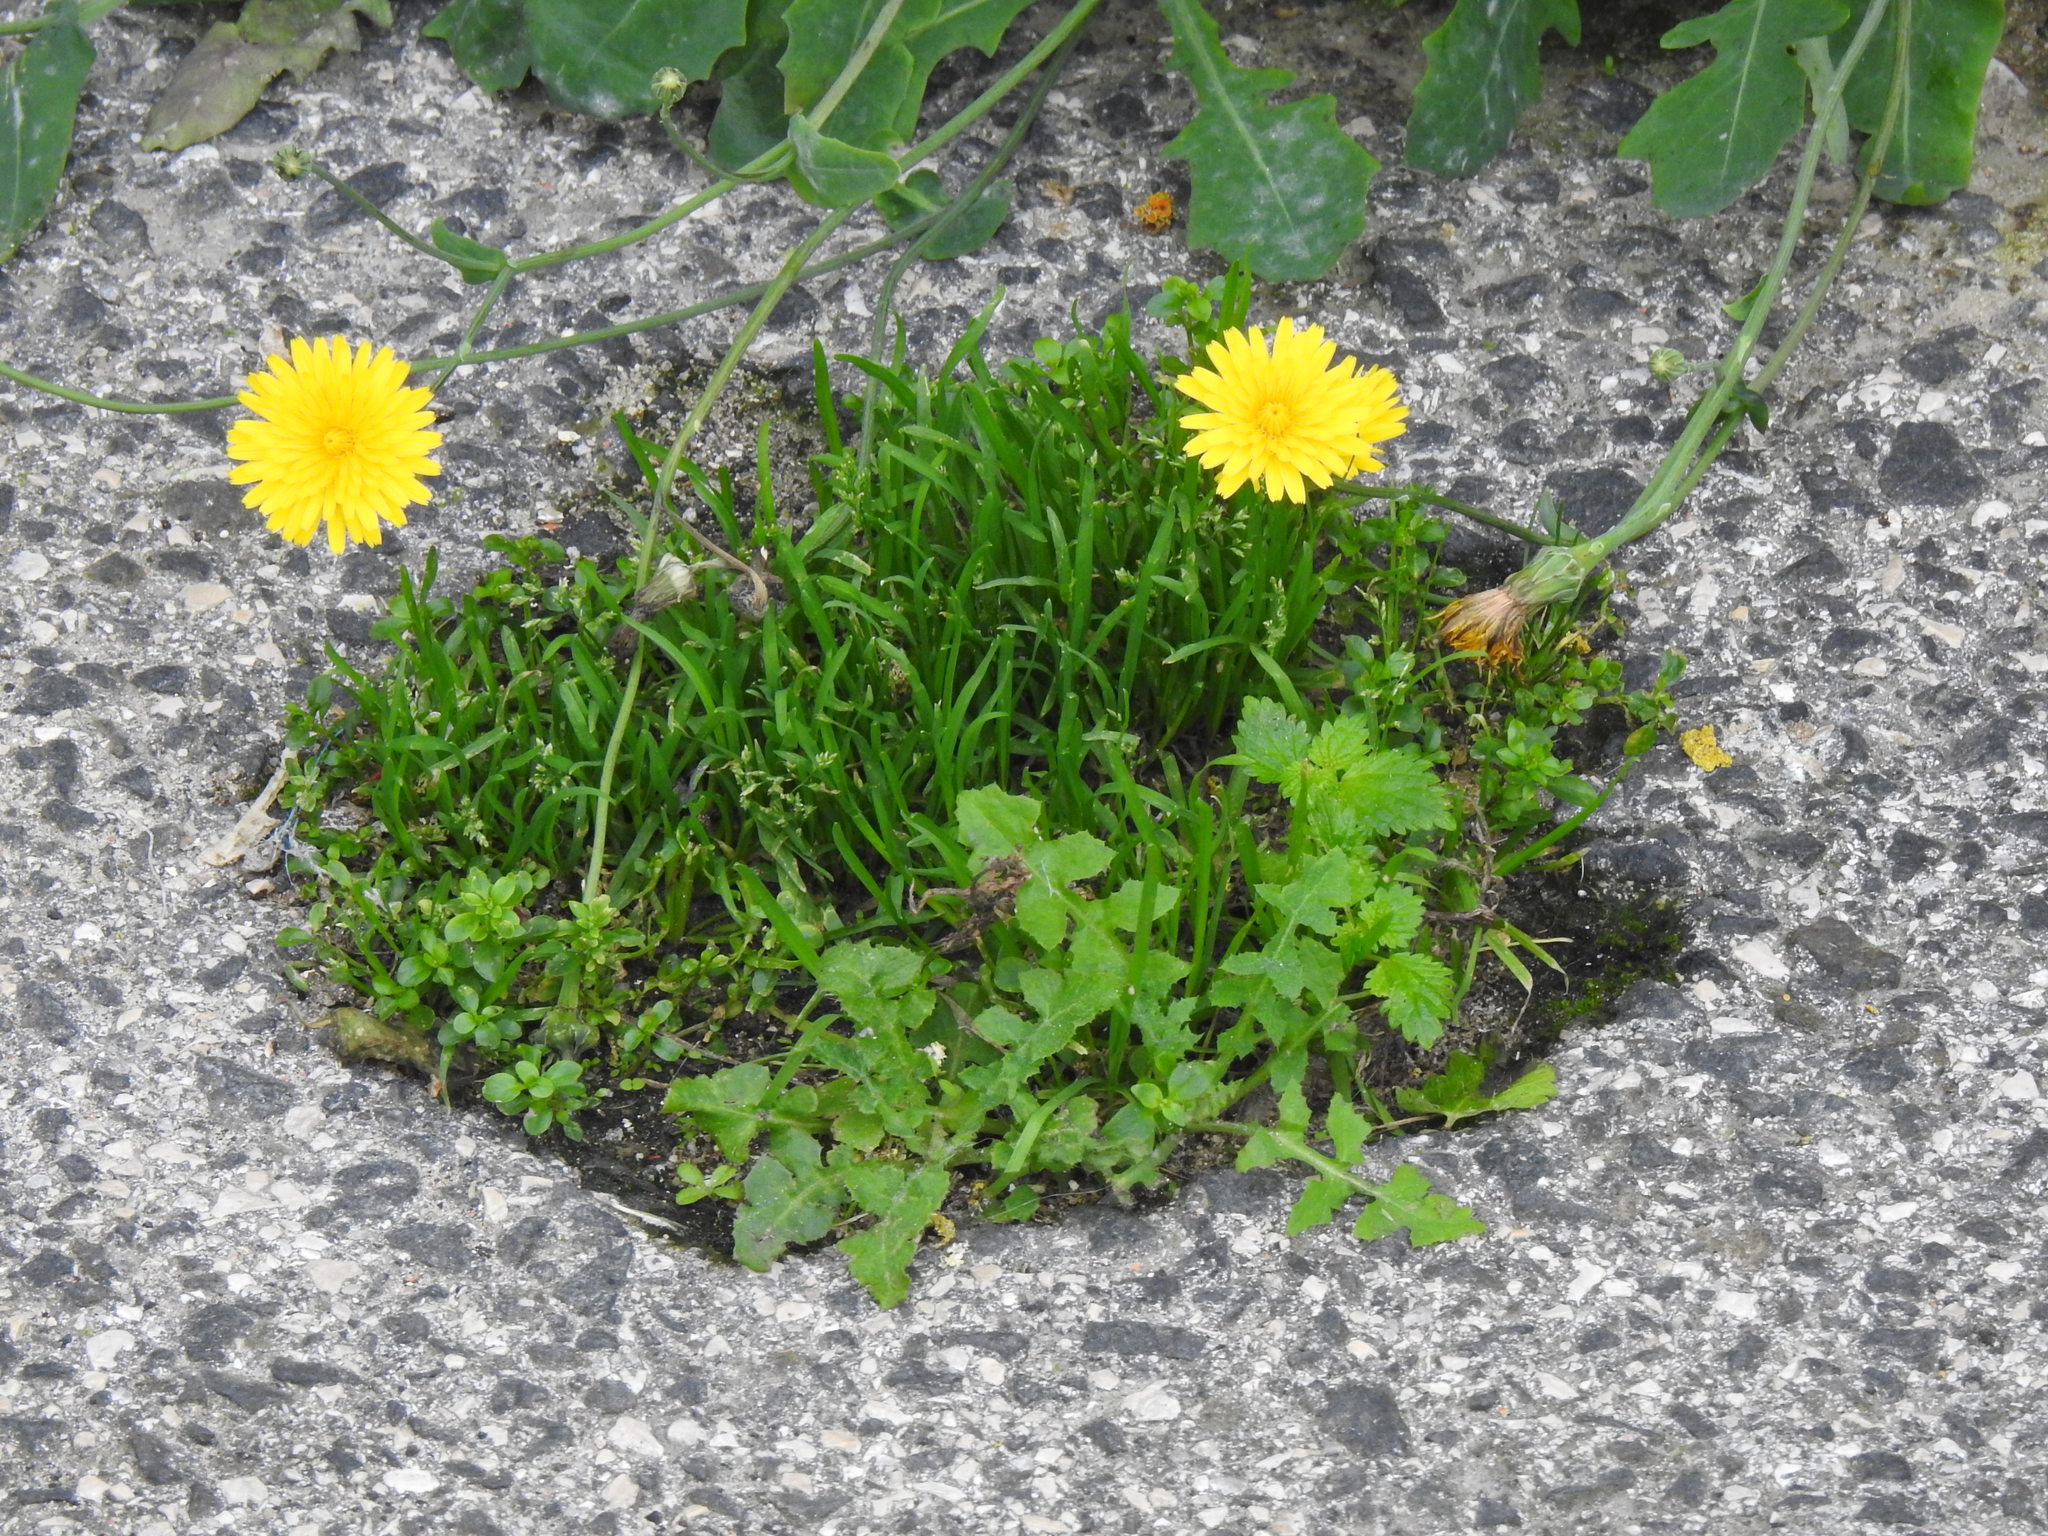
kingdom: Plantae
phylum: Tracheophyta
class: Magnoliopsida
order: Asterales
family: Asteraceae
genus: Reichardia
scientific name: Reichardia picroides
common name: Common brighteyes
